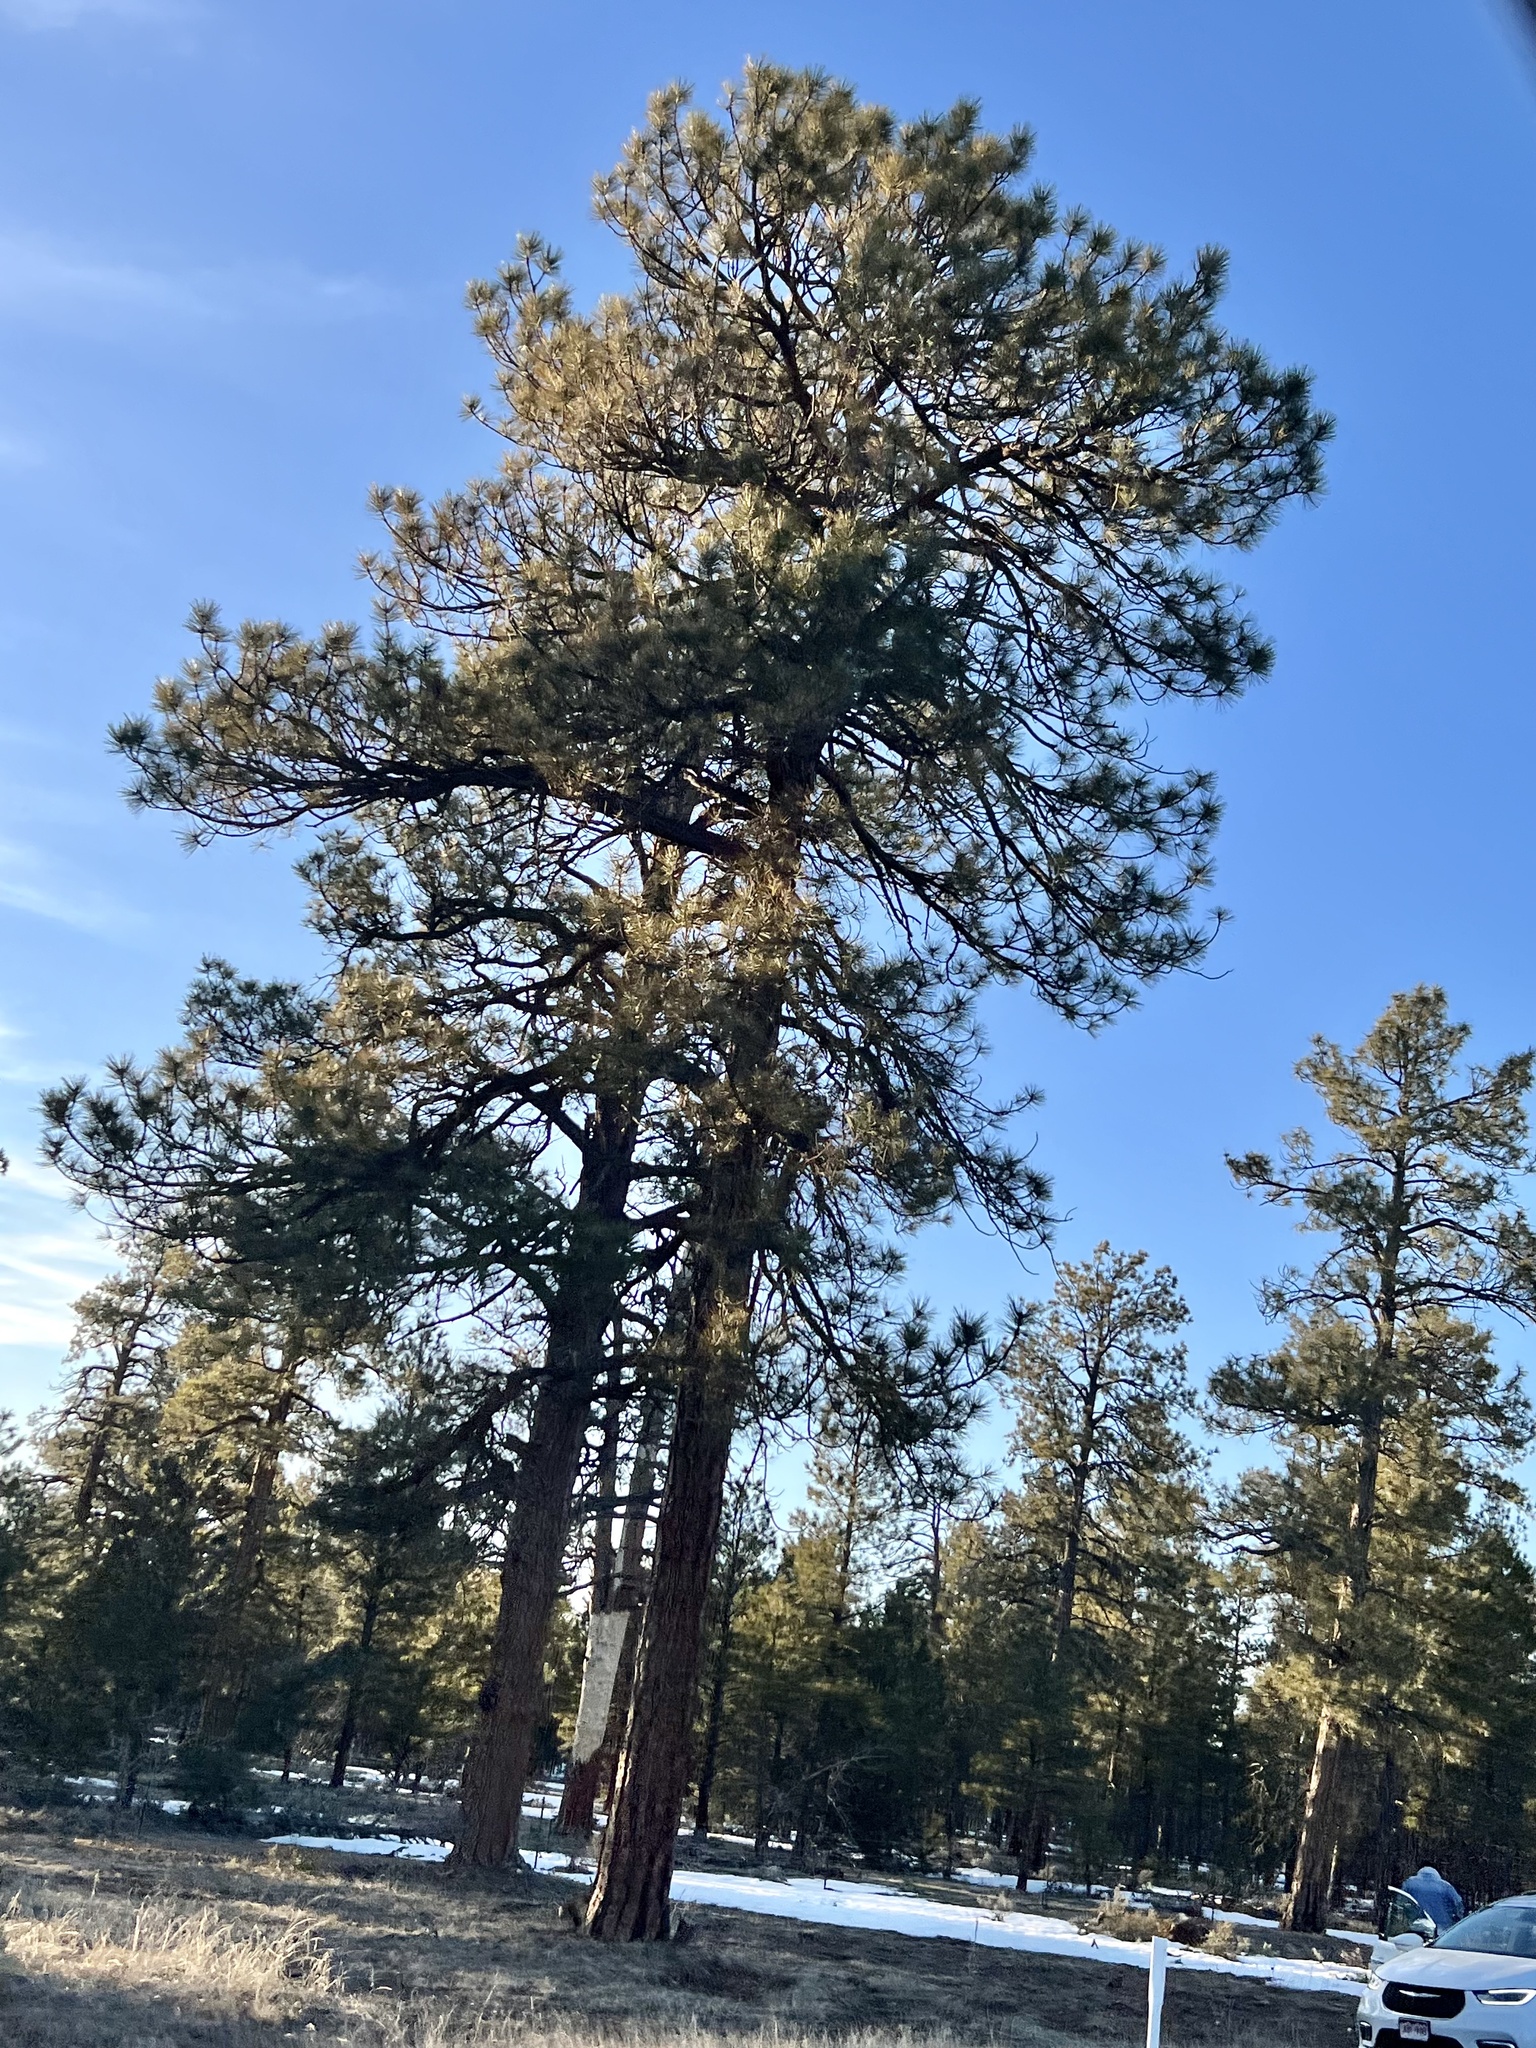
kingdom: Plantae
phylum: Tracheophyta
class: Pinopsida
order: Pinales
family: Pinaceae
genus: Pinus
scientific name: Pinus ponderosa
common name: Western yellow-pine
